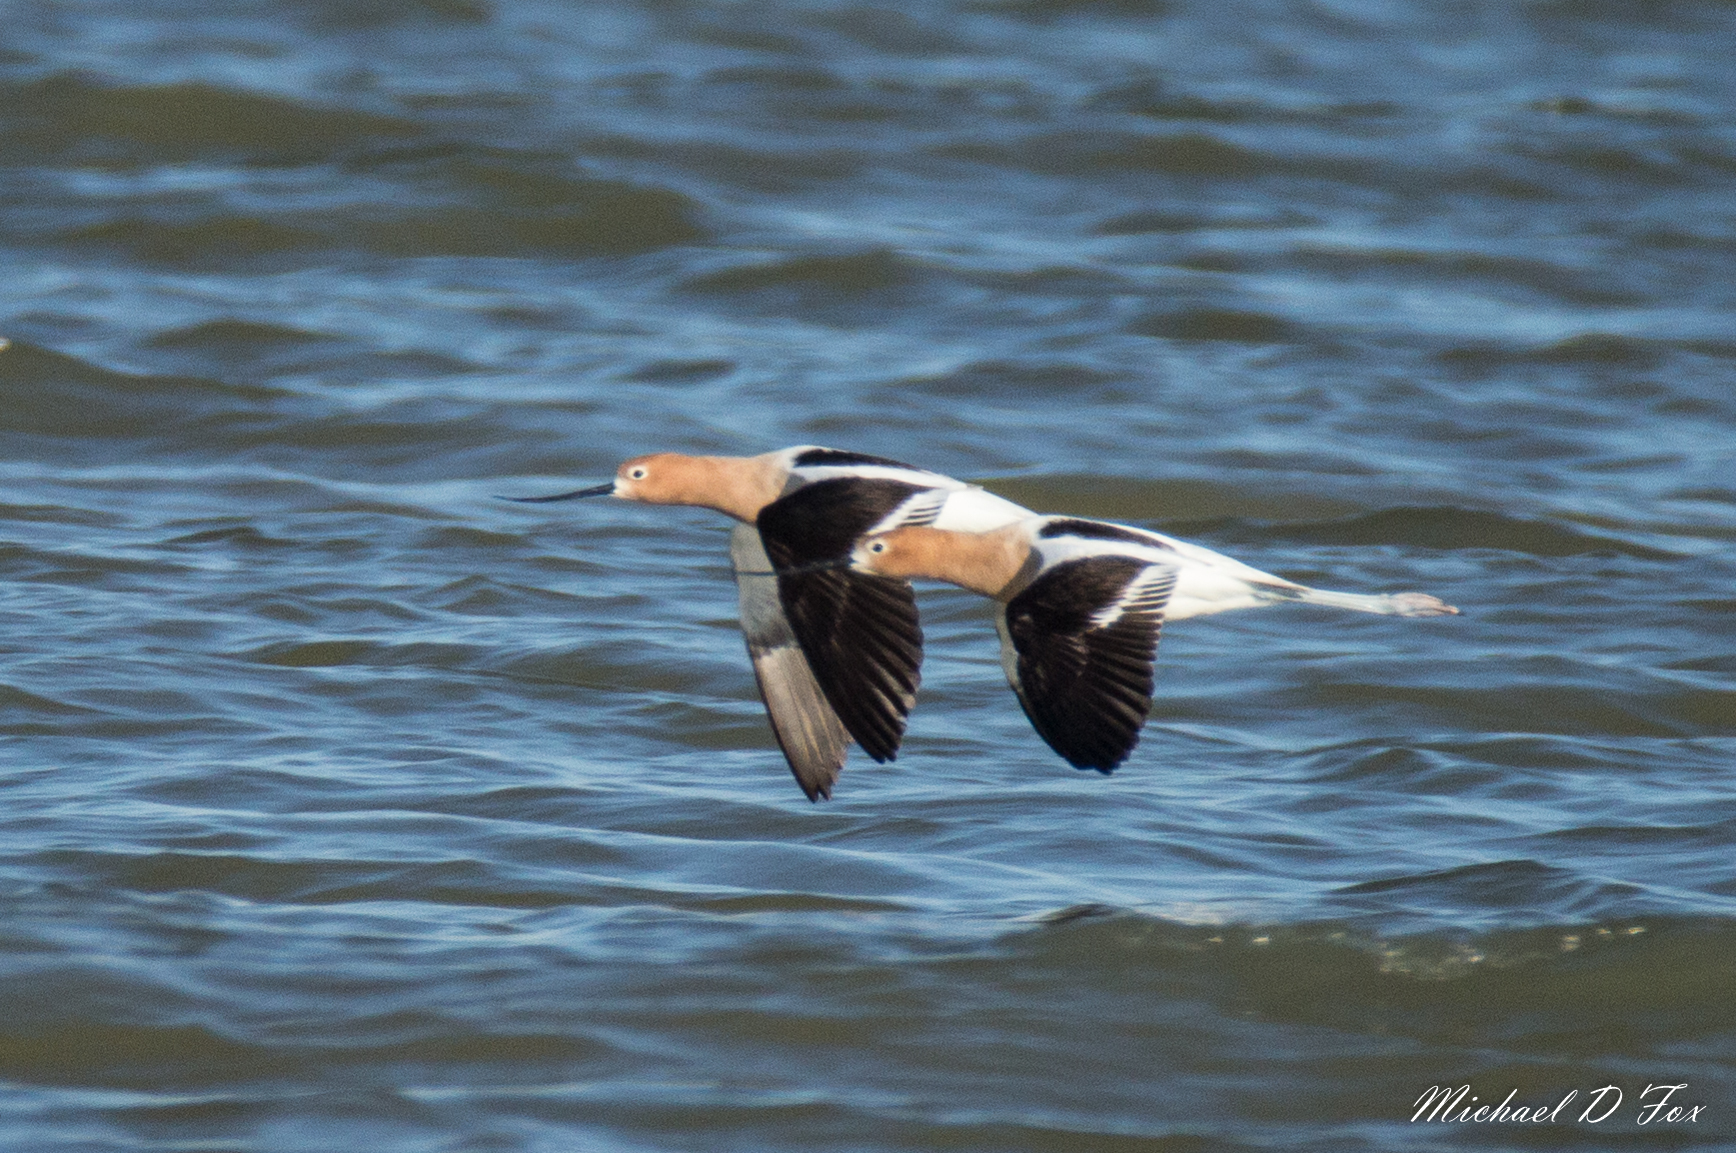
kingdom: Animalia
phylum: Chordata
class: Aves
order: Charadriiformes
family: Recurvirostridae
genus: Recurvirostra
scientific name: Recurvirostra americana
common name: American avocet
